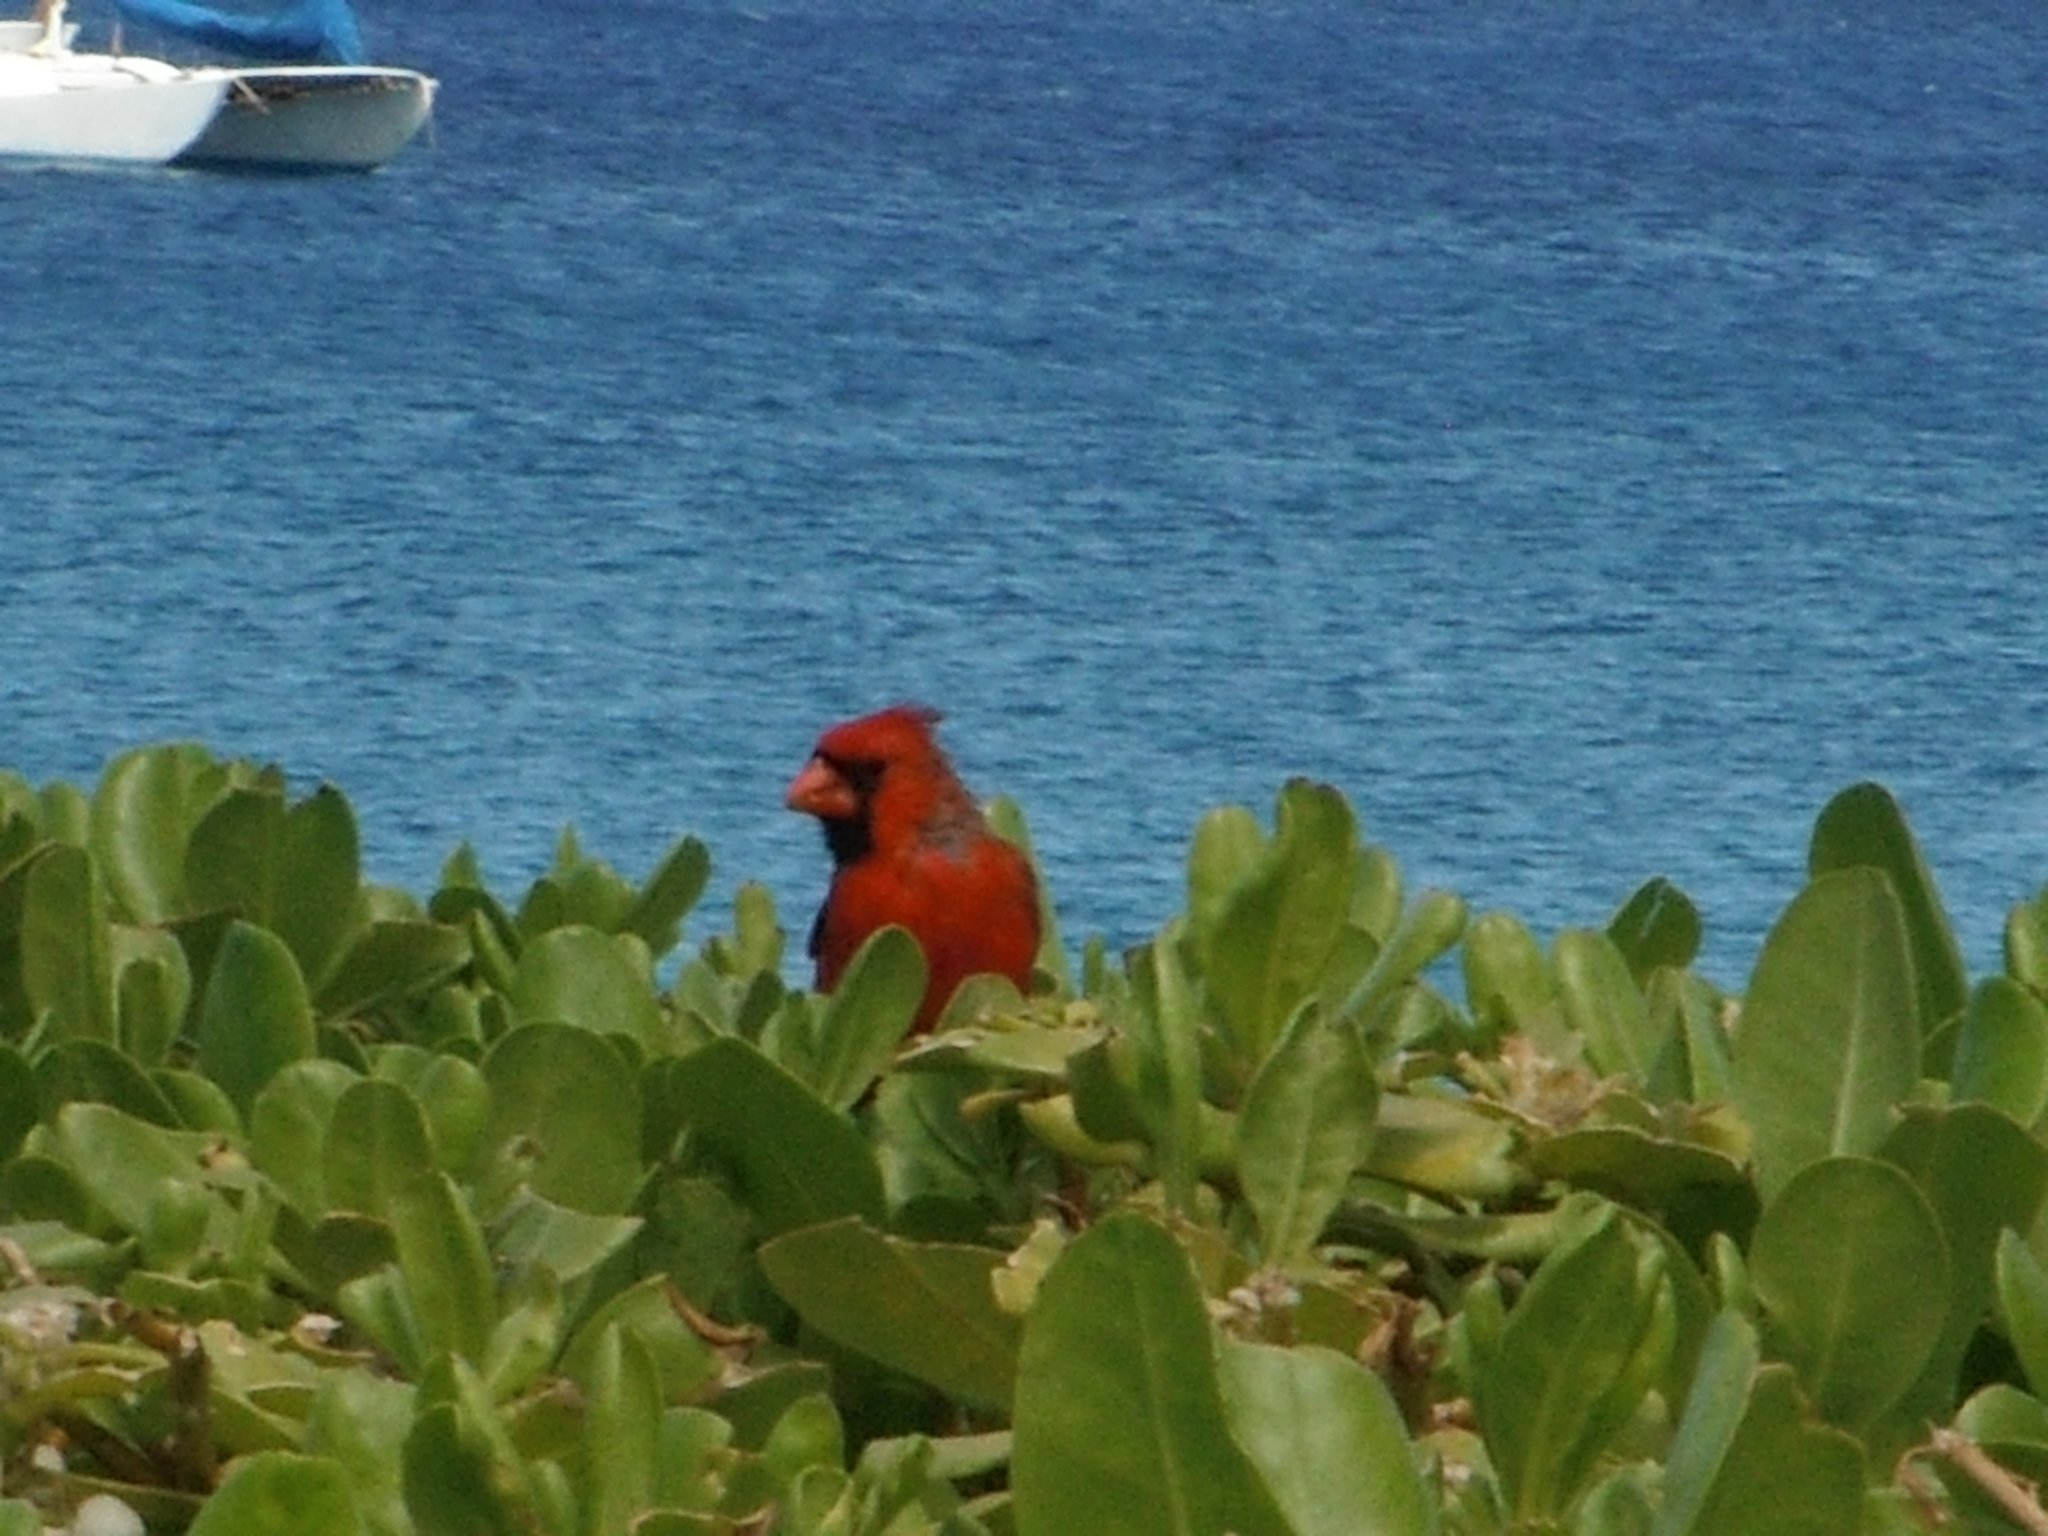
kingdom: Animalia
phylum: Chordata
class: Aves
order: Passeriformes
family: Cardinalidae
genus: Cardinalis
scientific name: Cardinalis cardinalis
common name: Northern cardinal
